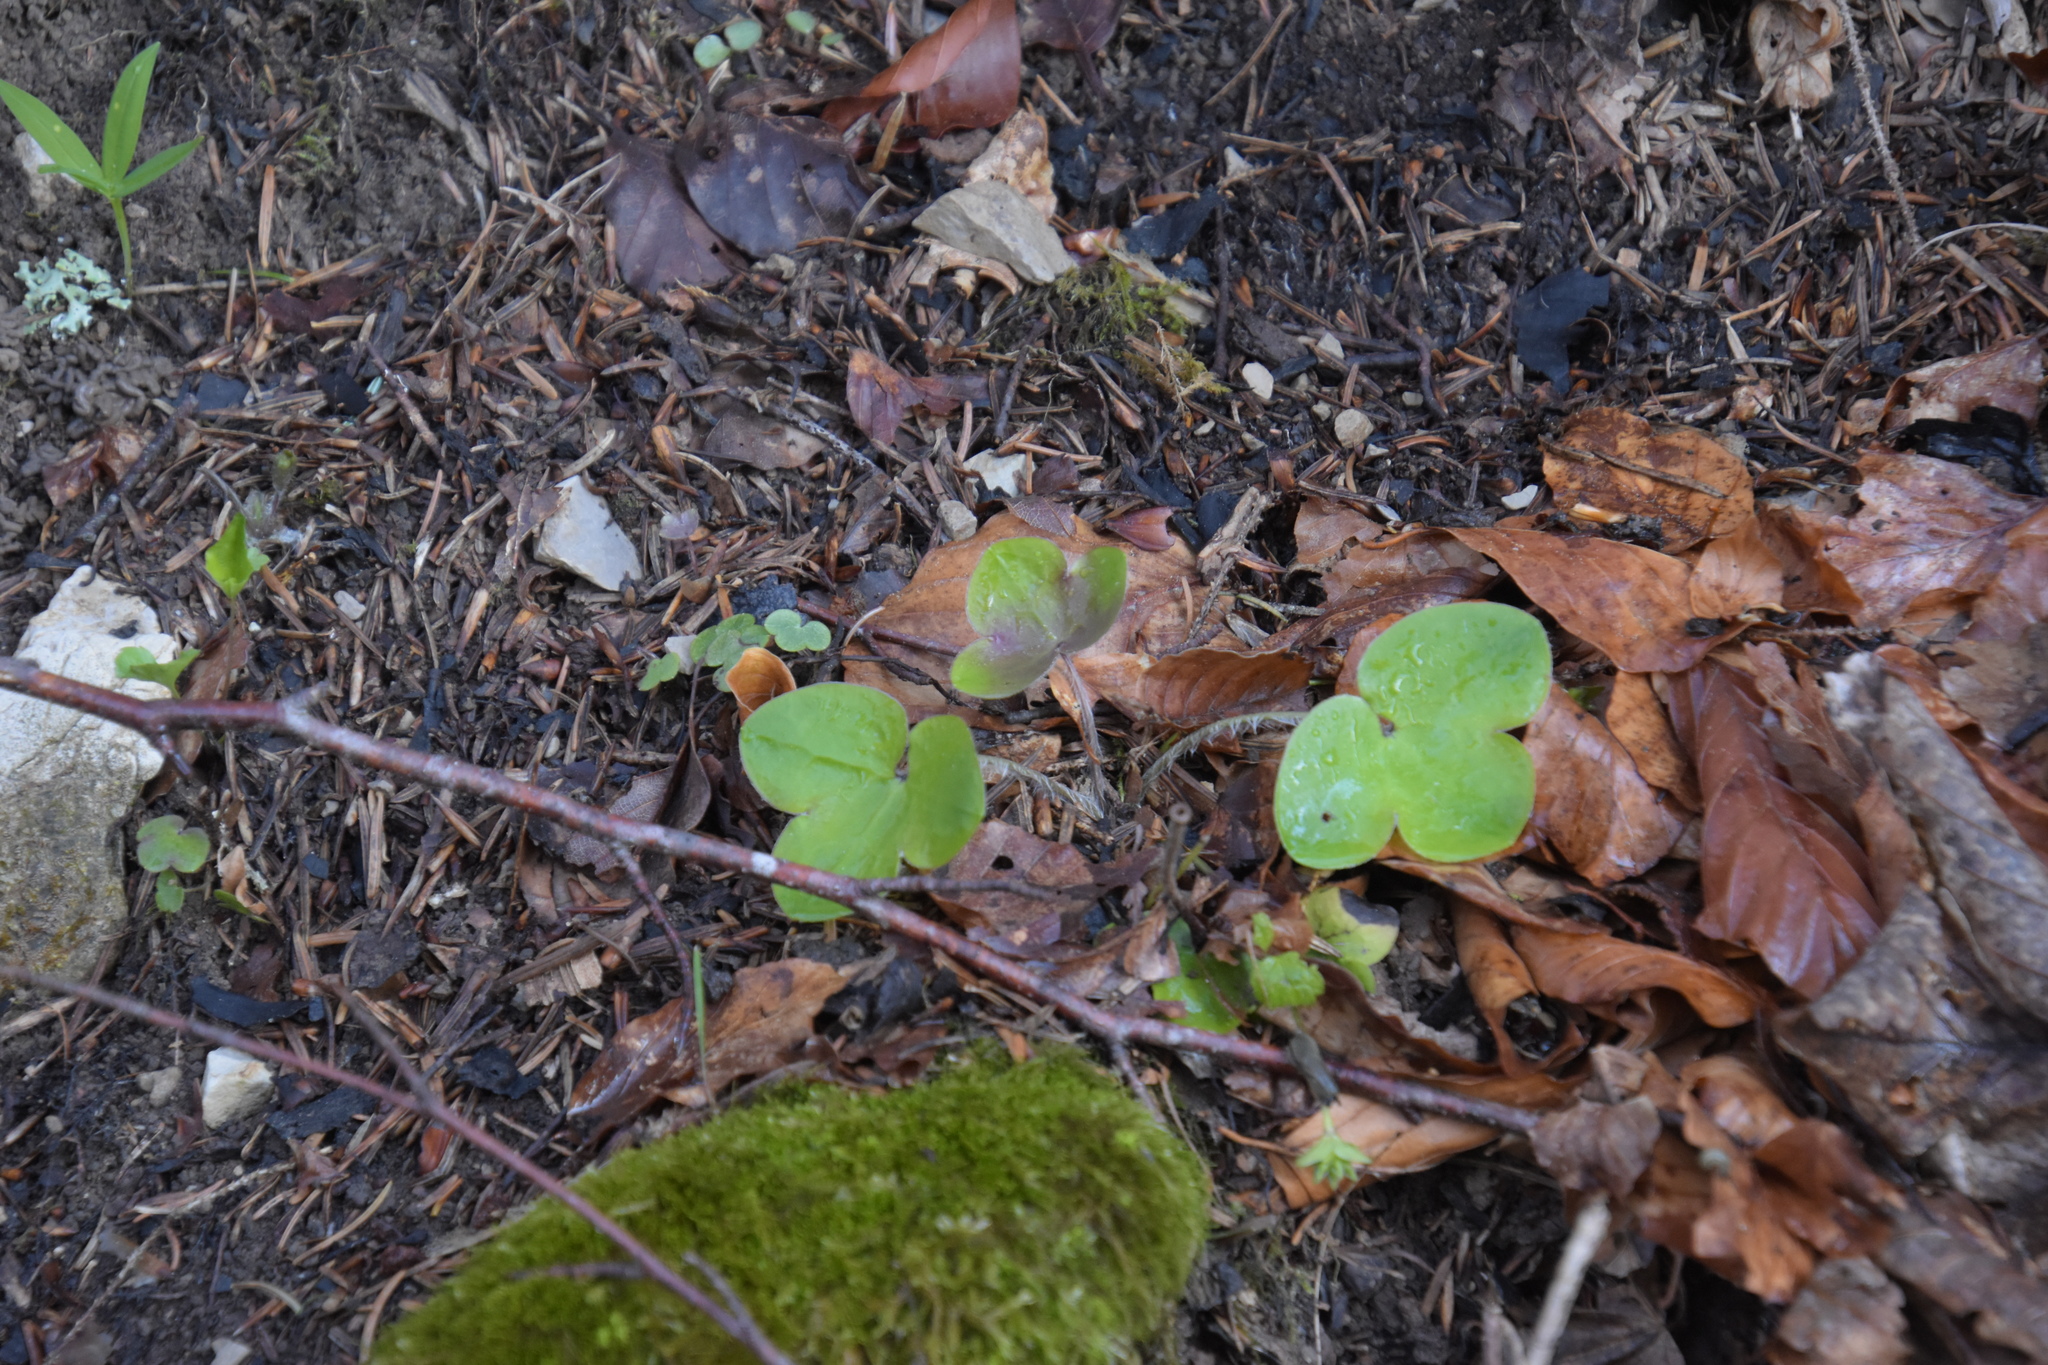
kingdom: Plantae
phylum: Tracheophyta
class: Magnoliopsida
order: Ranunculales
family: Ranunculaceae
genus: Hepatica
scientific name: Hepatica nobilis
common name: Liverleaf
